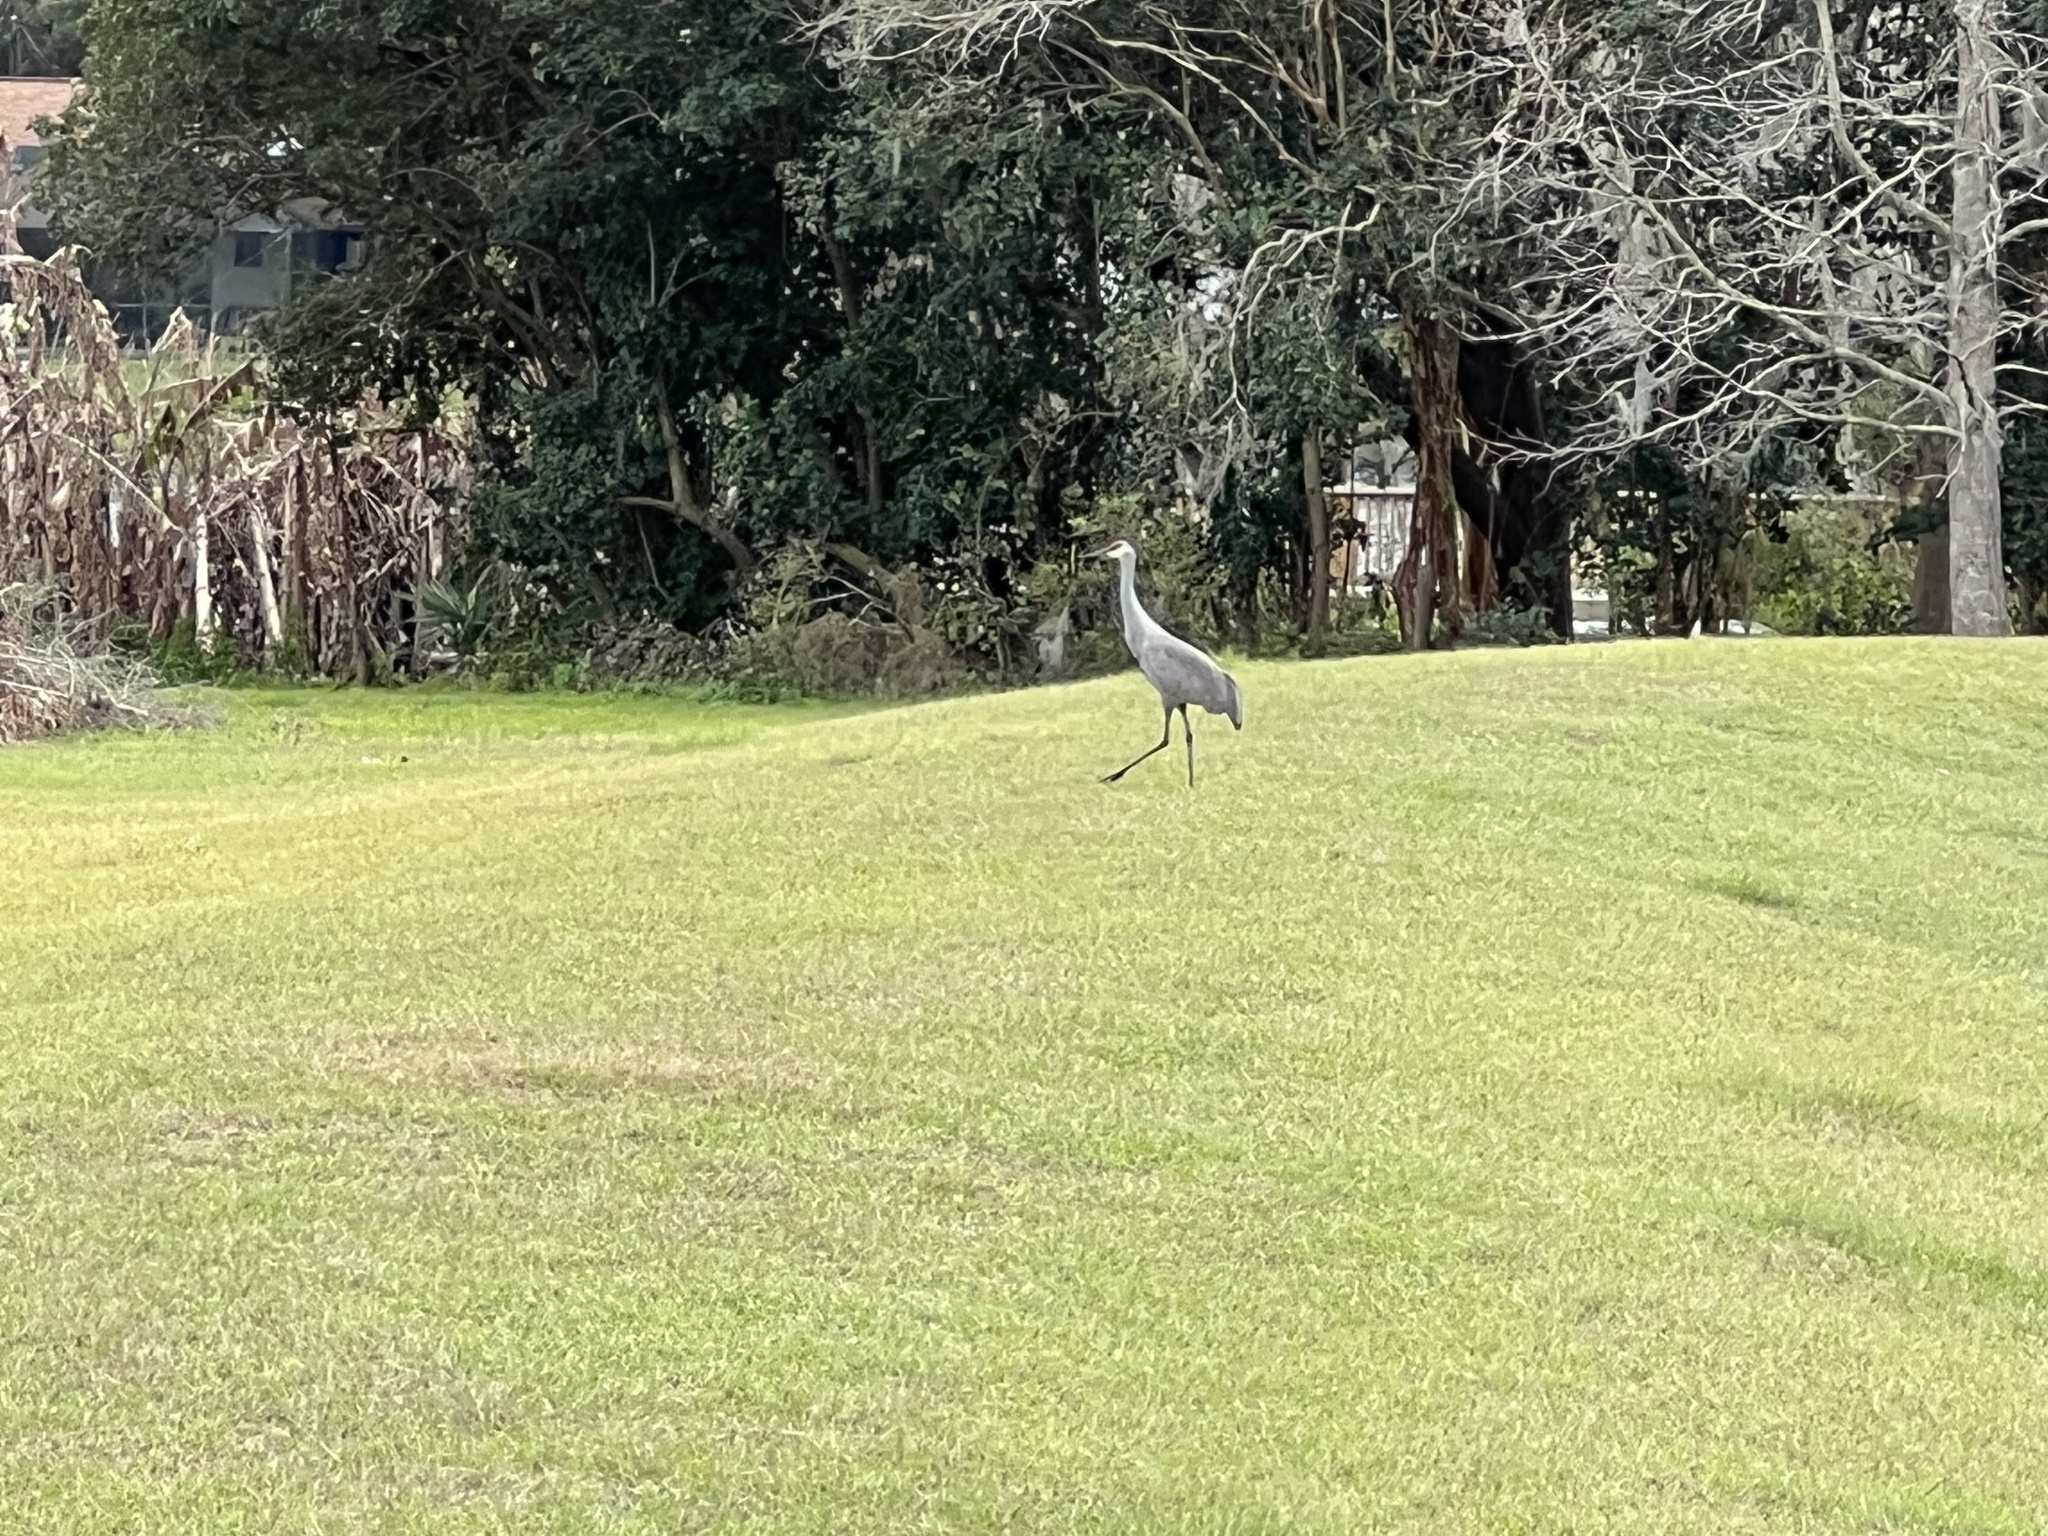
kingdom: Animalia
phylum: Chordata
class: Aves
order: Gruiformes
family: Gruidae
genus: Grus
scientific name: Grus canadensis
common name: Sandhill crane
